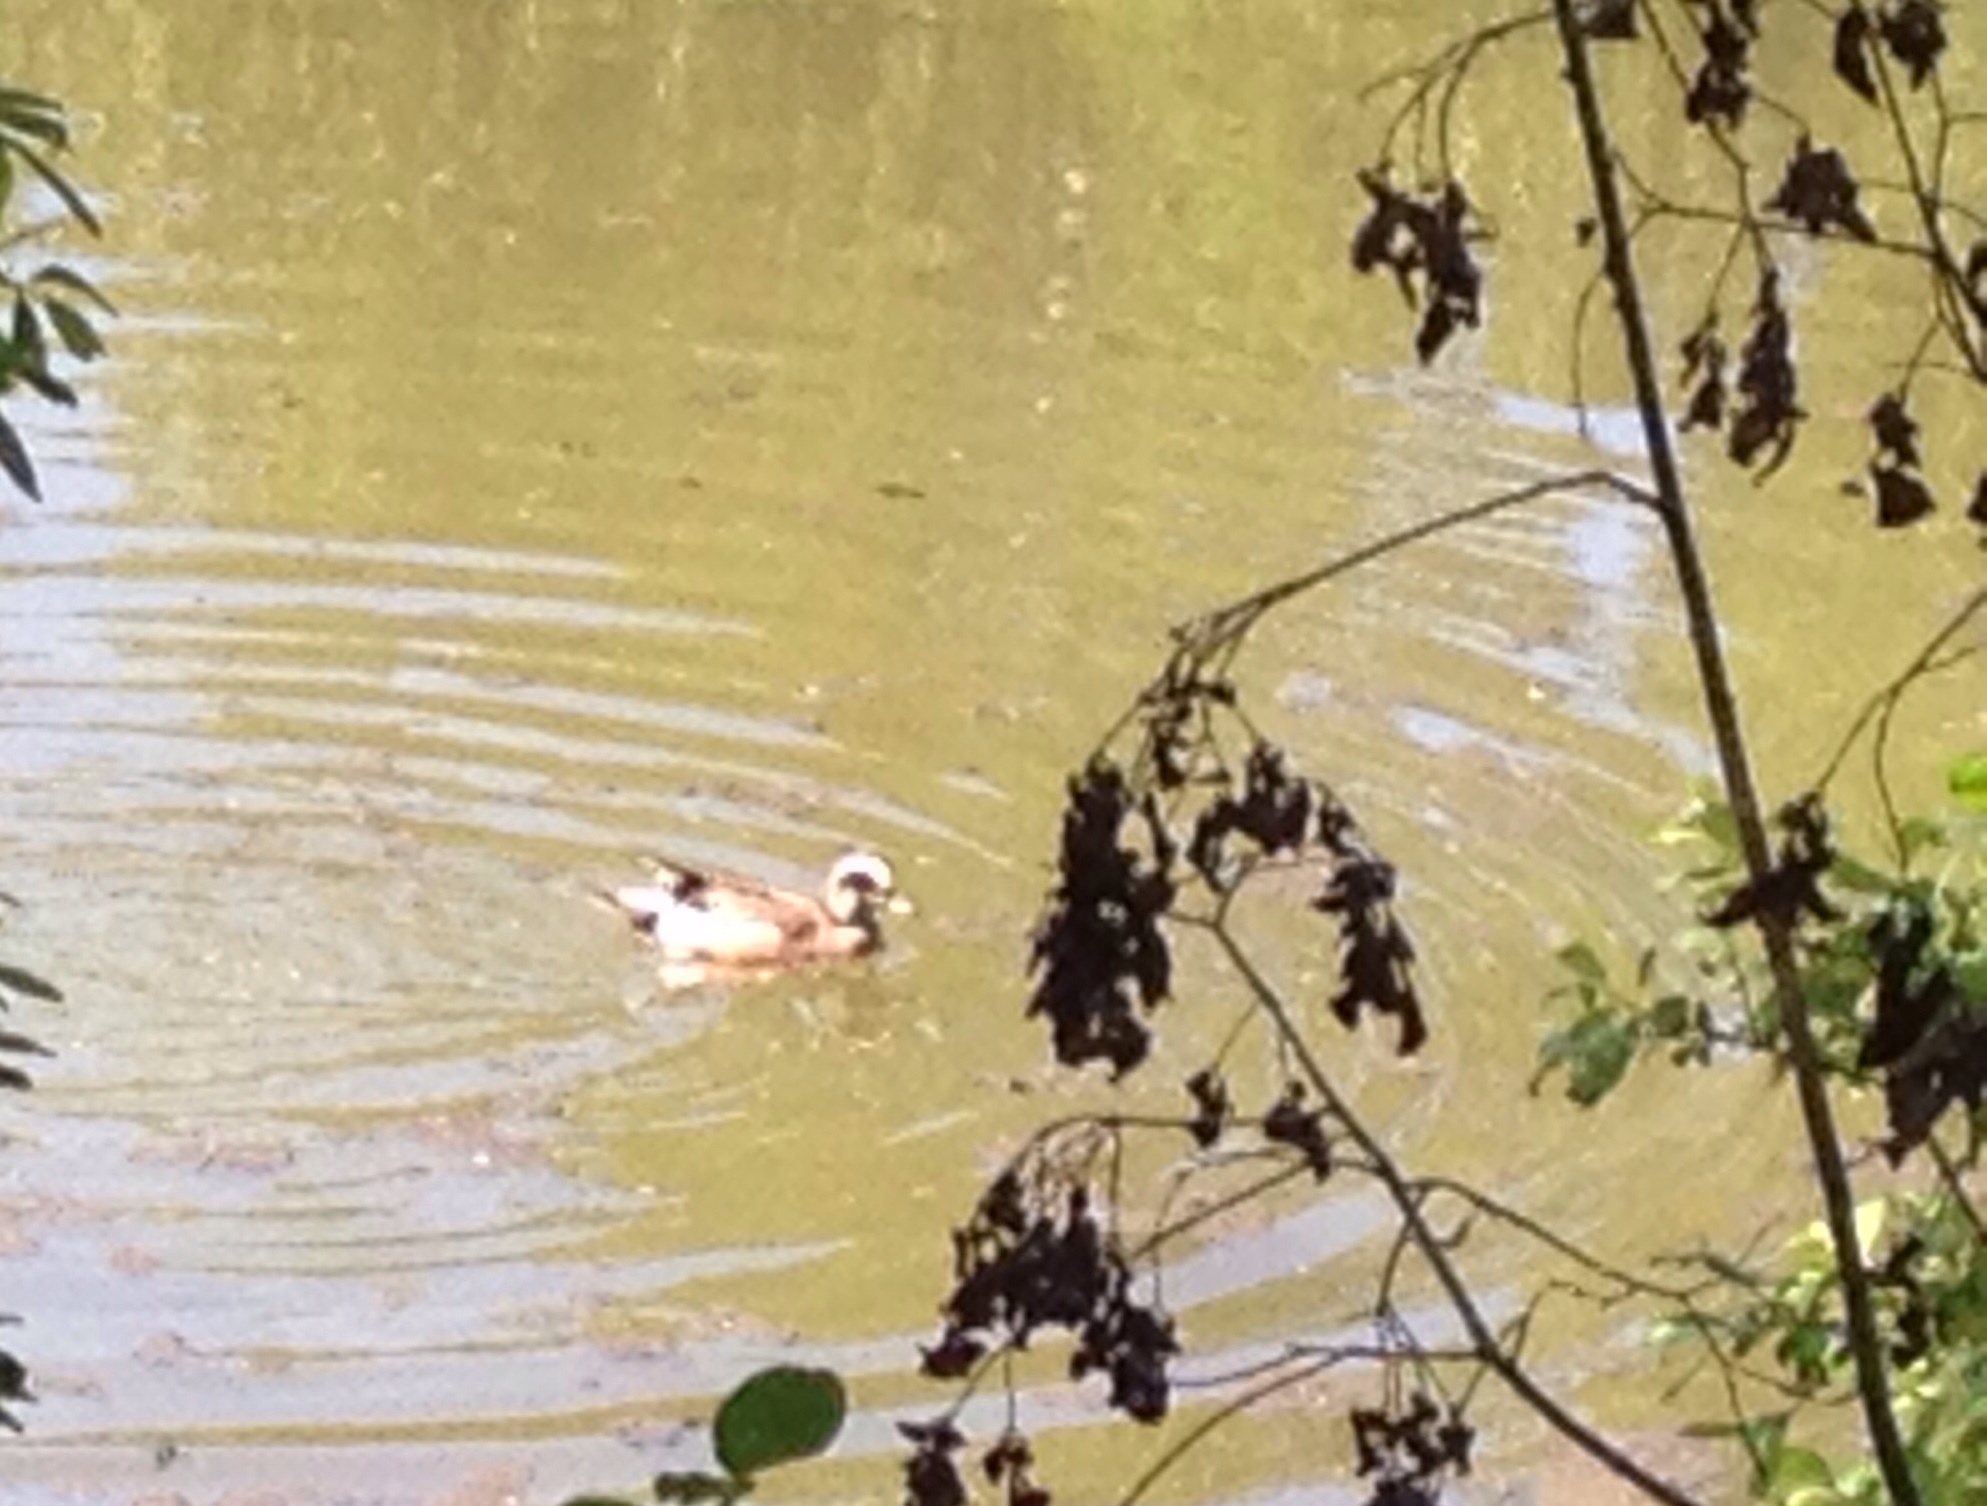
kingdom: Animalia
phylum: Chordata
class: Aves
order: Anseriformes
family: Anatidae
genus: Mareca
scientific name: Mareca americana
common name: American wigeon
